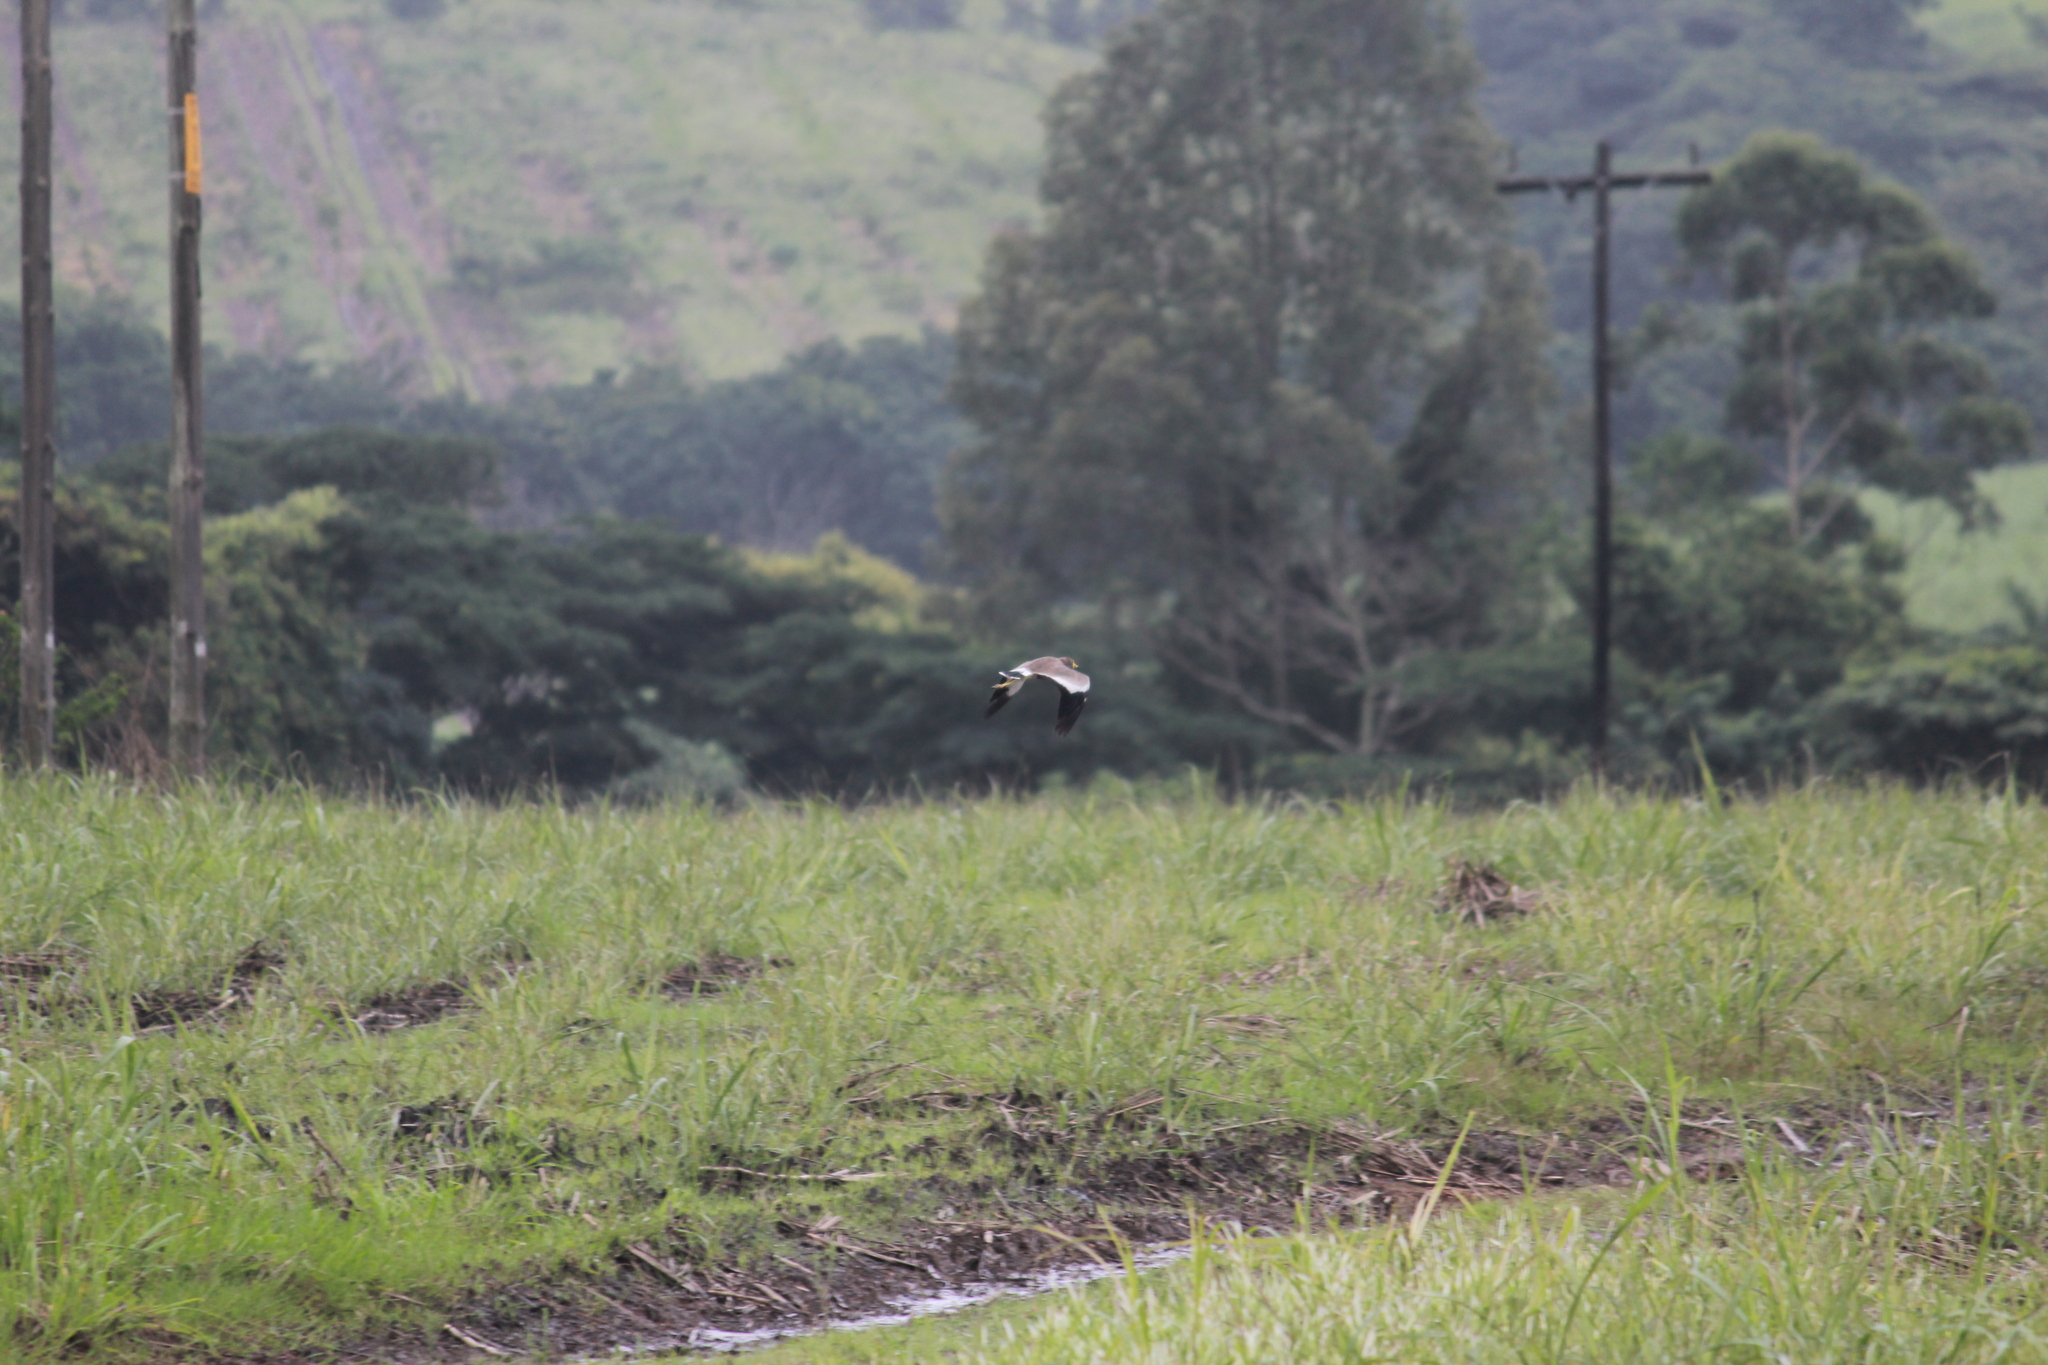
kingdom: Animalia
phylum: Chordata
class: Aves
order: Charadriiformes
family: Charadriidae
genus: Vanellus
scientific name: Vanellus senegallus
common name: African wattled lapwing
